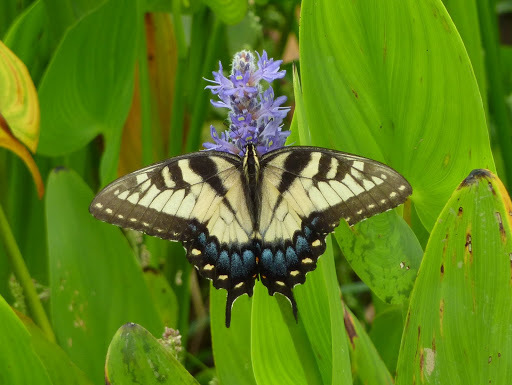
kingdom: Animalia
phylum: Arthropoda
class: Insecta
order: Lepidoptera
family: Papilionidae
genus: Papilio
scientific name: Papilio glaucus
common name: Tiger swallowtail
